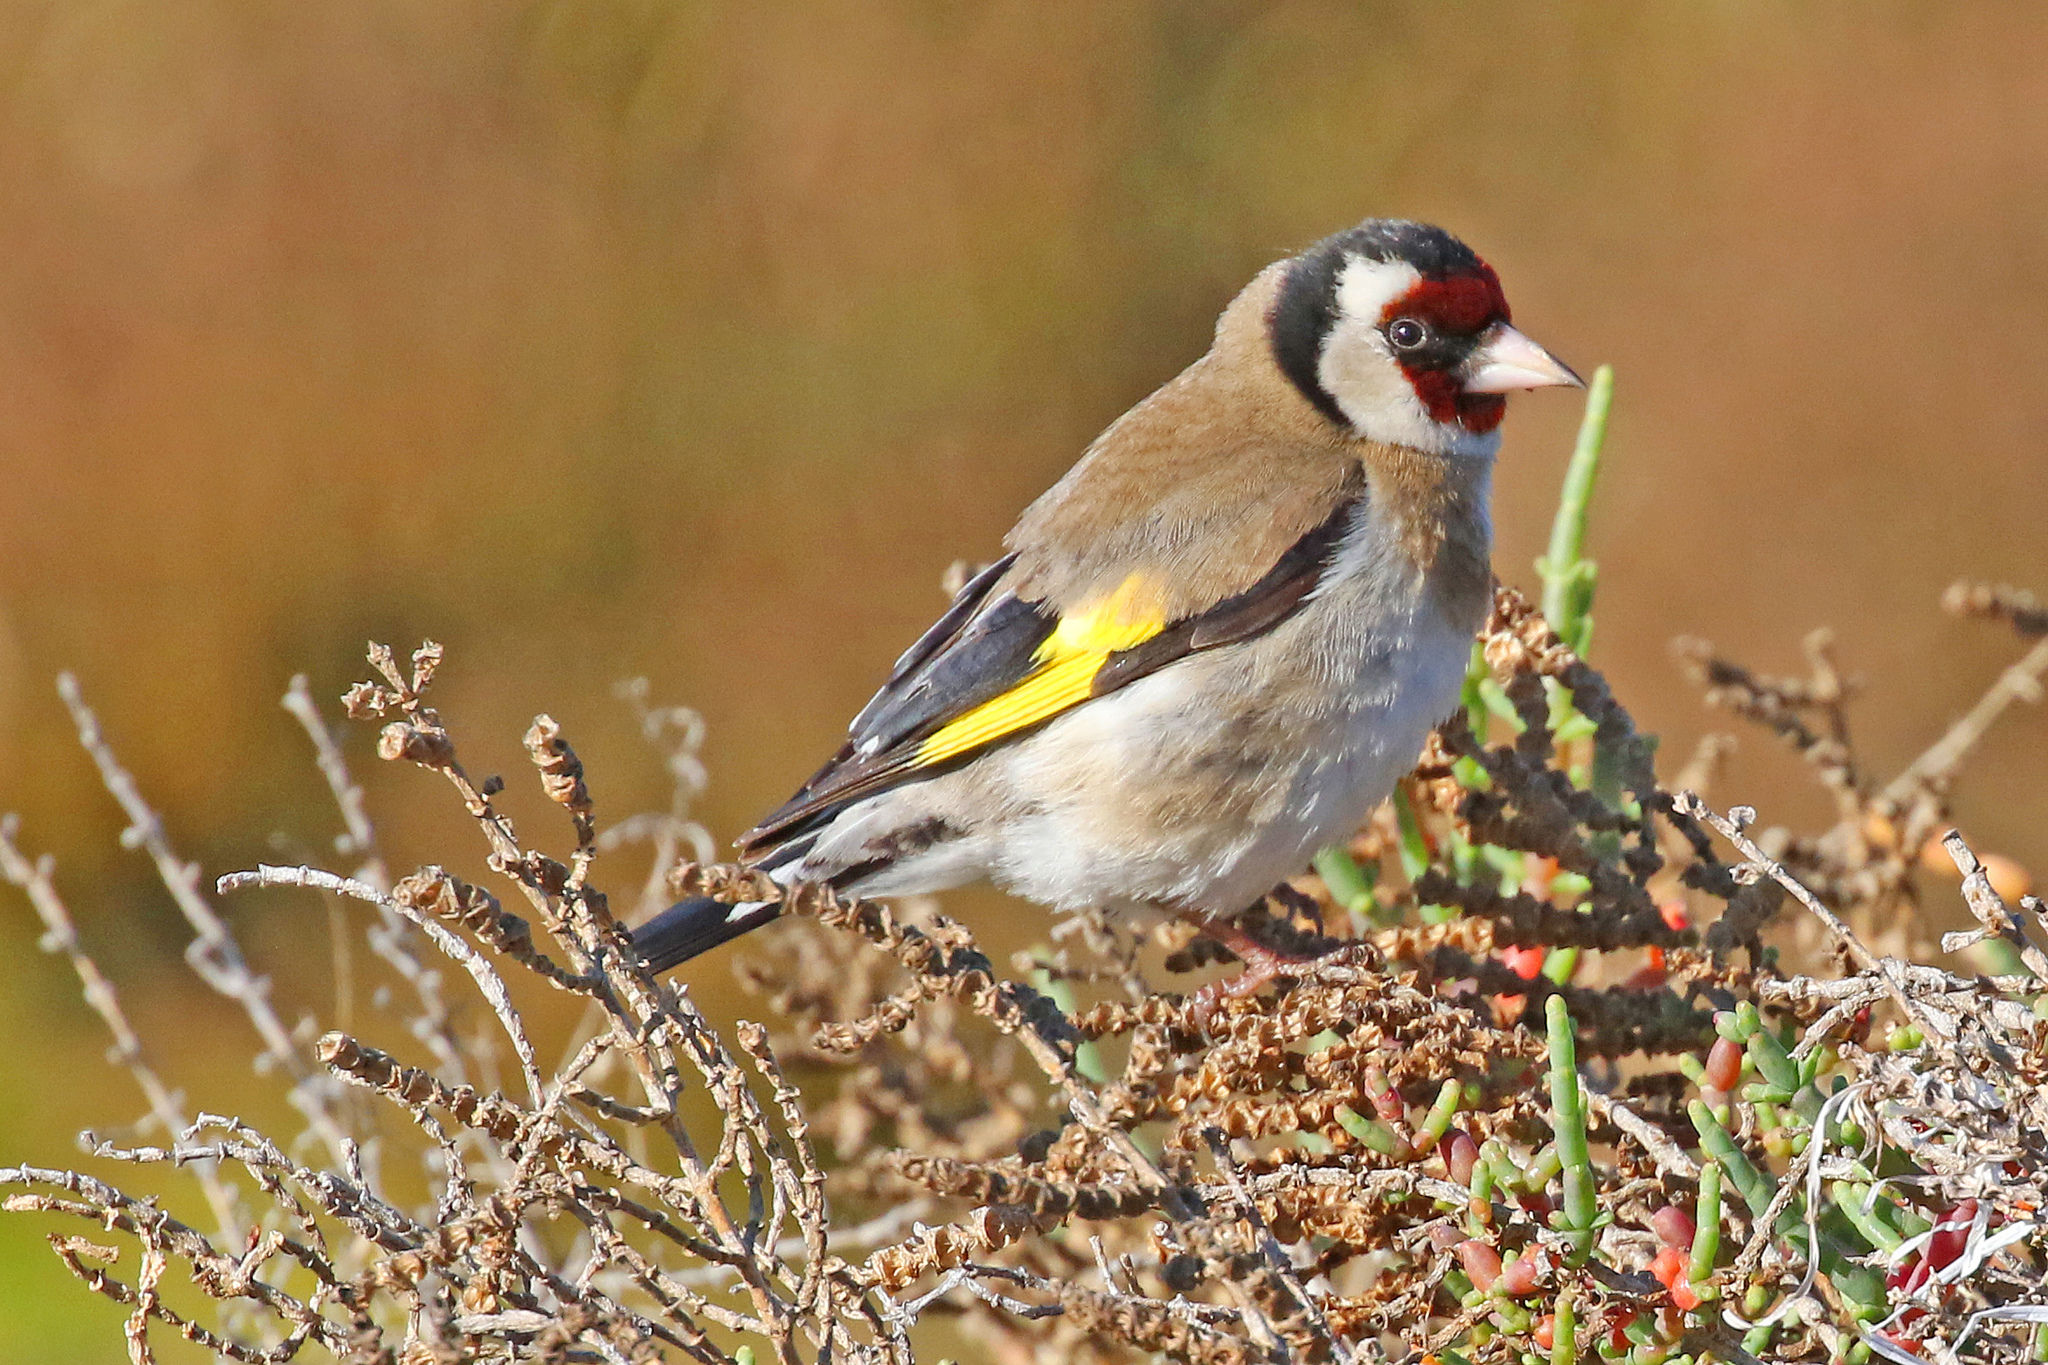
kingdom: Animalia
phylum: Chordata
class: Aves
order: Passeriformes
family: Fringillidae
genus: Carduelis
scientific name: Carduelis carduelis
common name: European goldfinch
